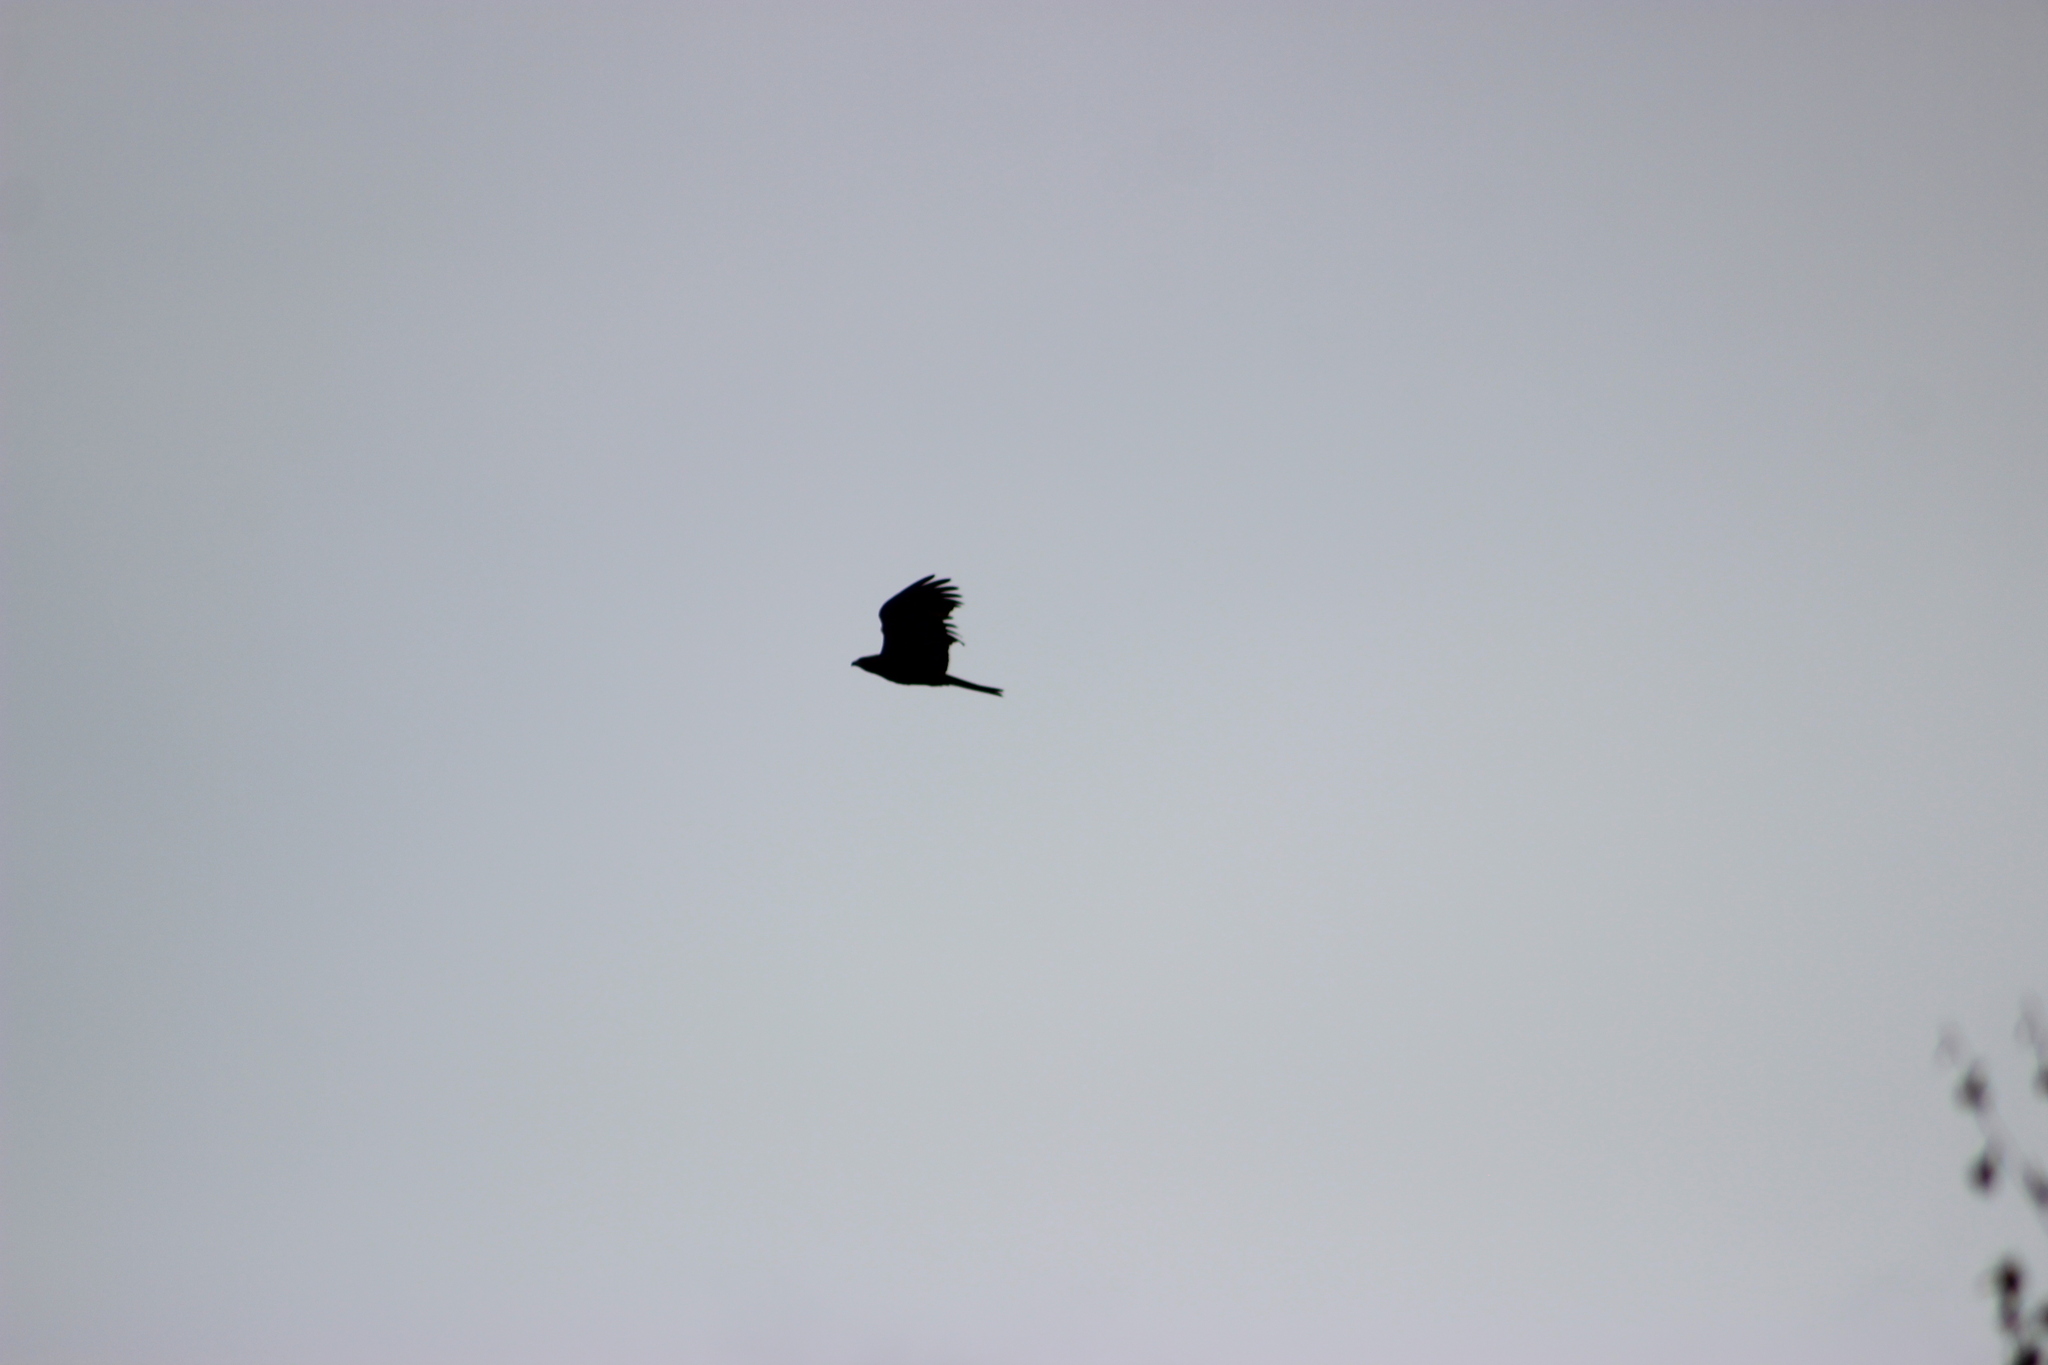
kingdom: Animalia
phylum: Chordata
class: Aves
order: Accipitriformes
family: Accipitridae
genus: Milvus
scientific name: Milvus migrans
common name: Black kite
